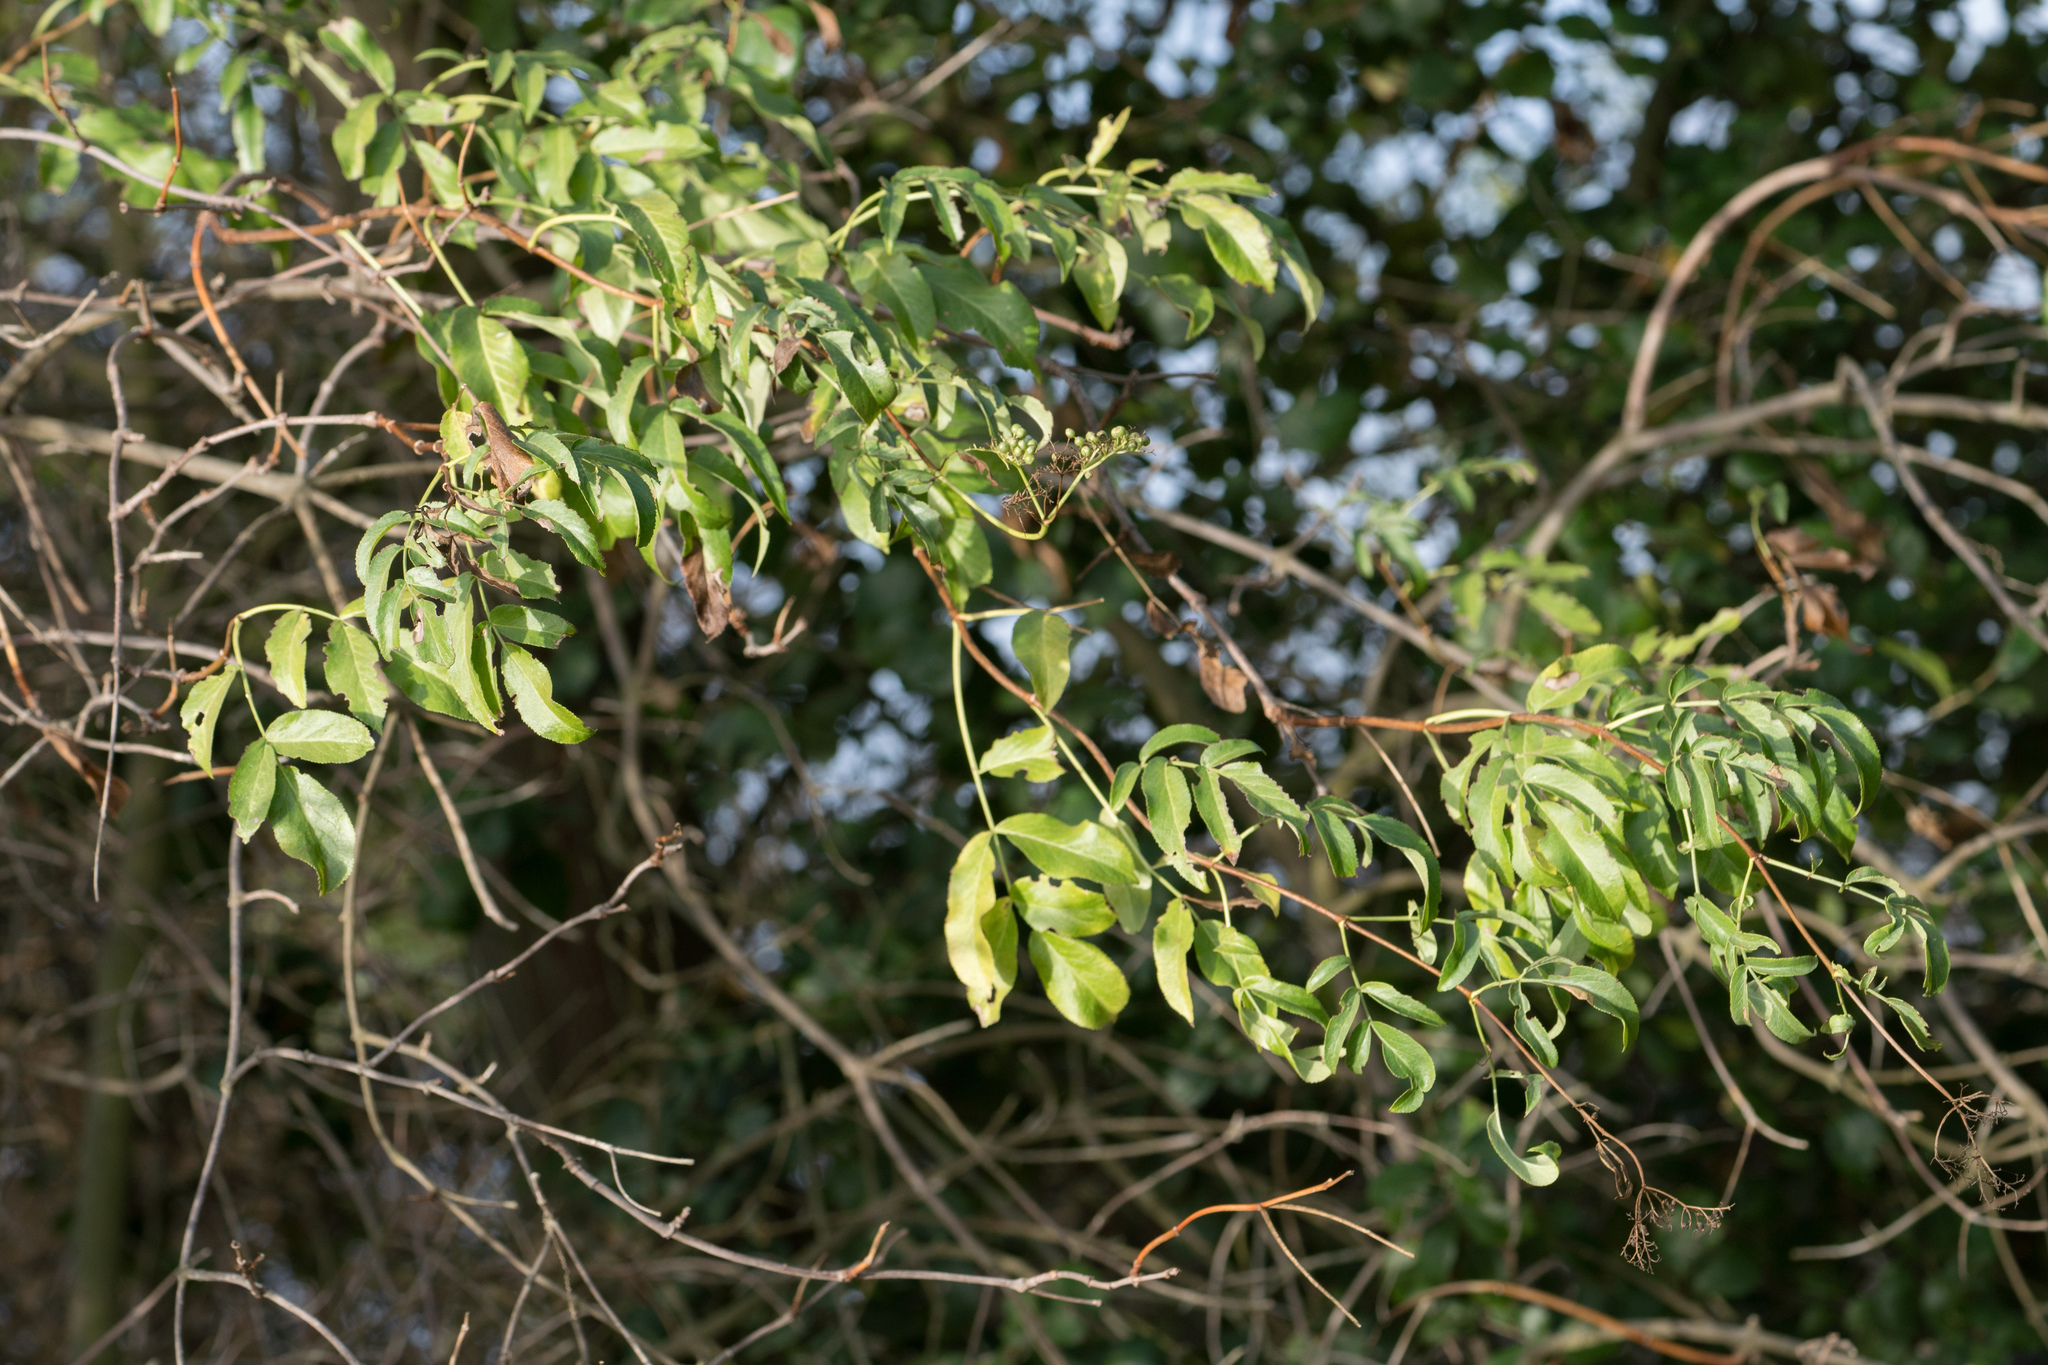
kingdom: Plantae
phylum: Tracheophyta
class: Magnoliopsida
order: Dipsacales
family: Viburnaceae
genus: Sambucus
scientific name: Sambucus cerulea
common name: Blue elder
